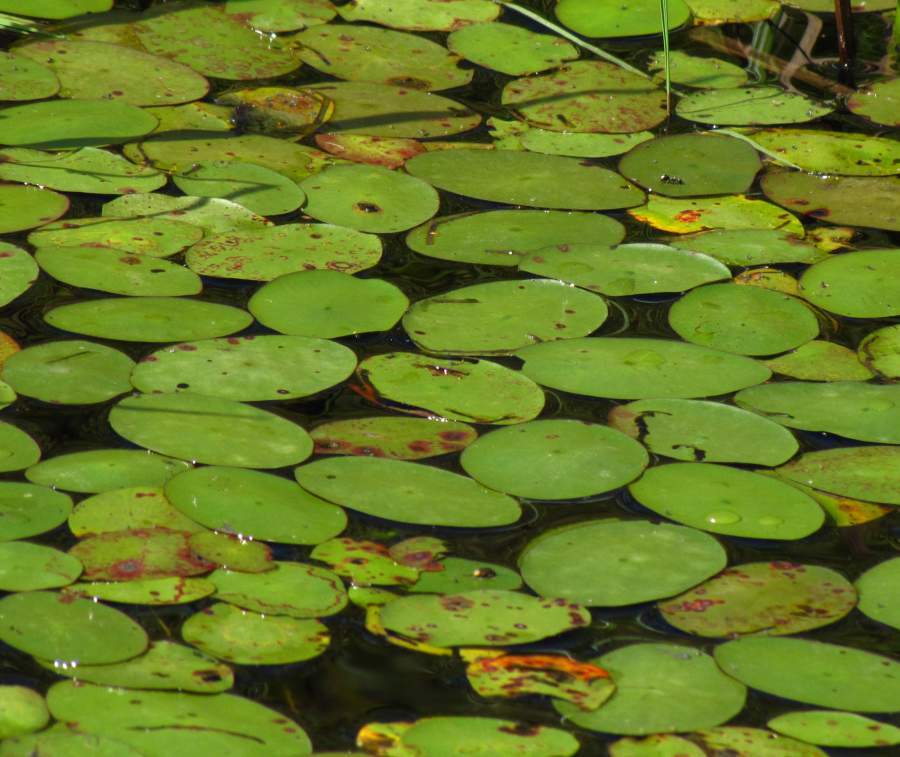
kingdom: Plantae
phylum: Tracheophyta
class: Magnoliopsida
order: Nymphaeales
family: Cabombaceae
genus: Brasenia
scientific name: Brasenia schreberi
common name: Water-shield
